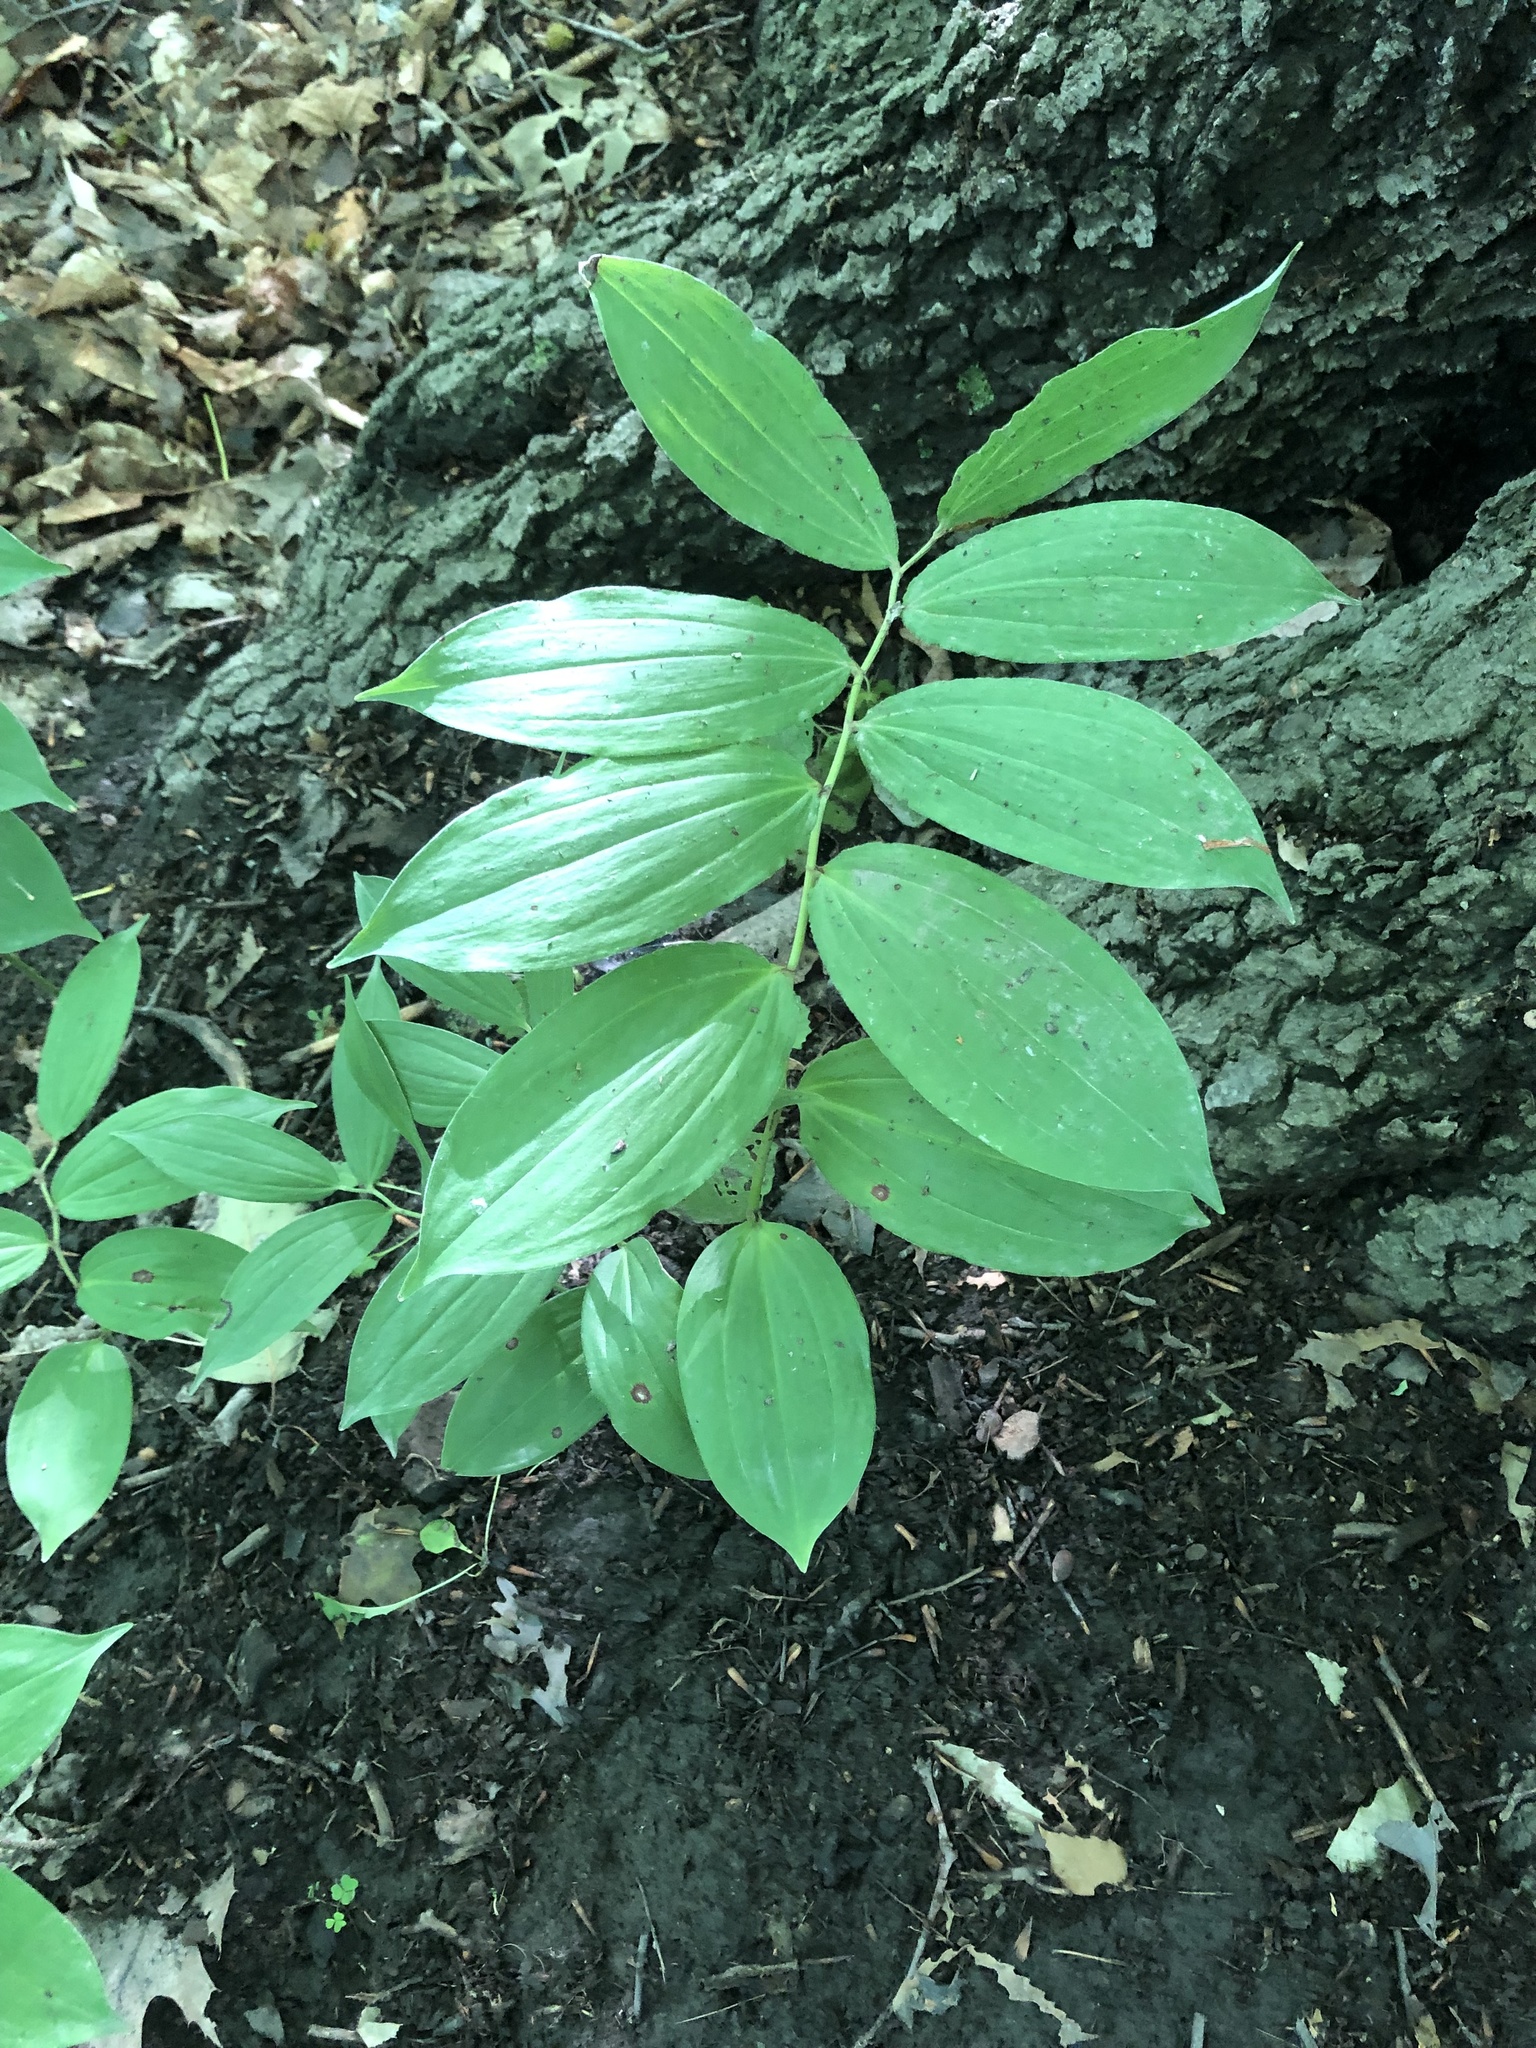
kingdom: Plantae
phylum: Tracheophyta
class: Liliopsida
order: Asparagales
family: Asparagaceae
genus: Maianthemum
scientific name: Maianthemum racemosum
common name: False spikenard
